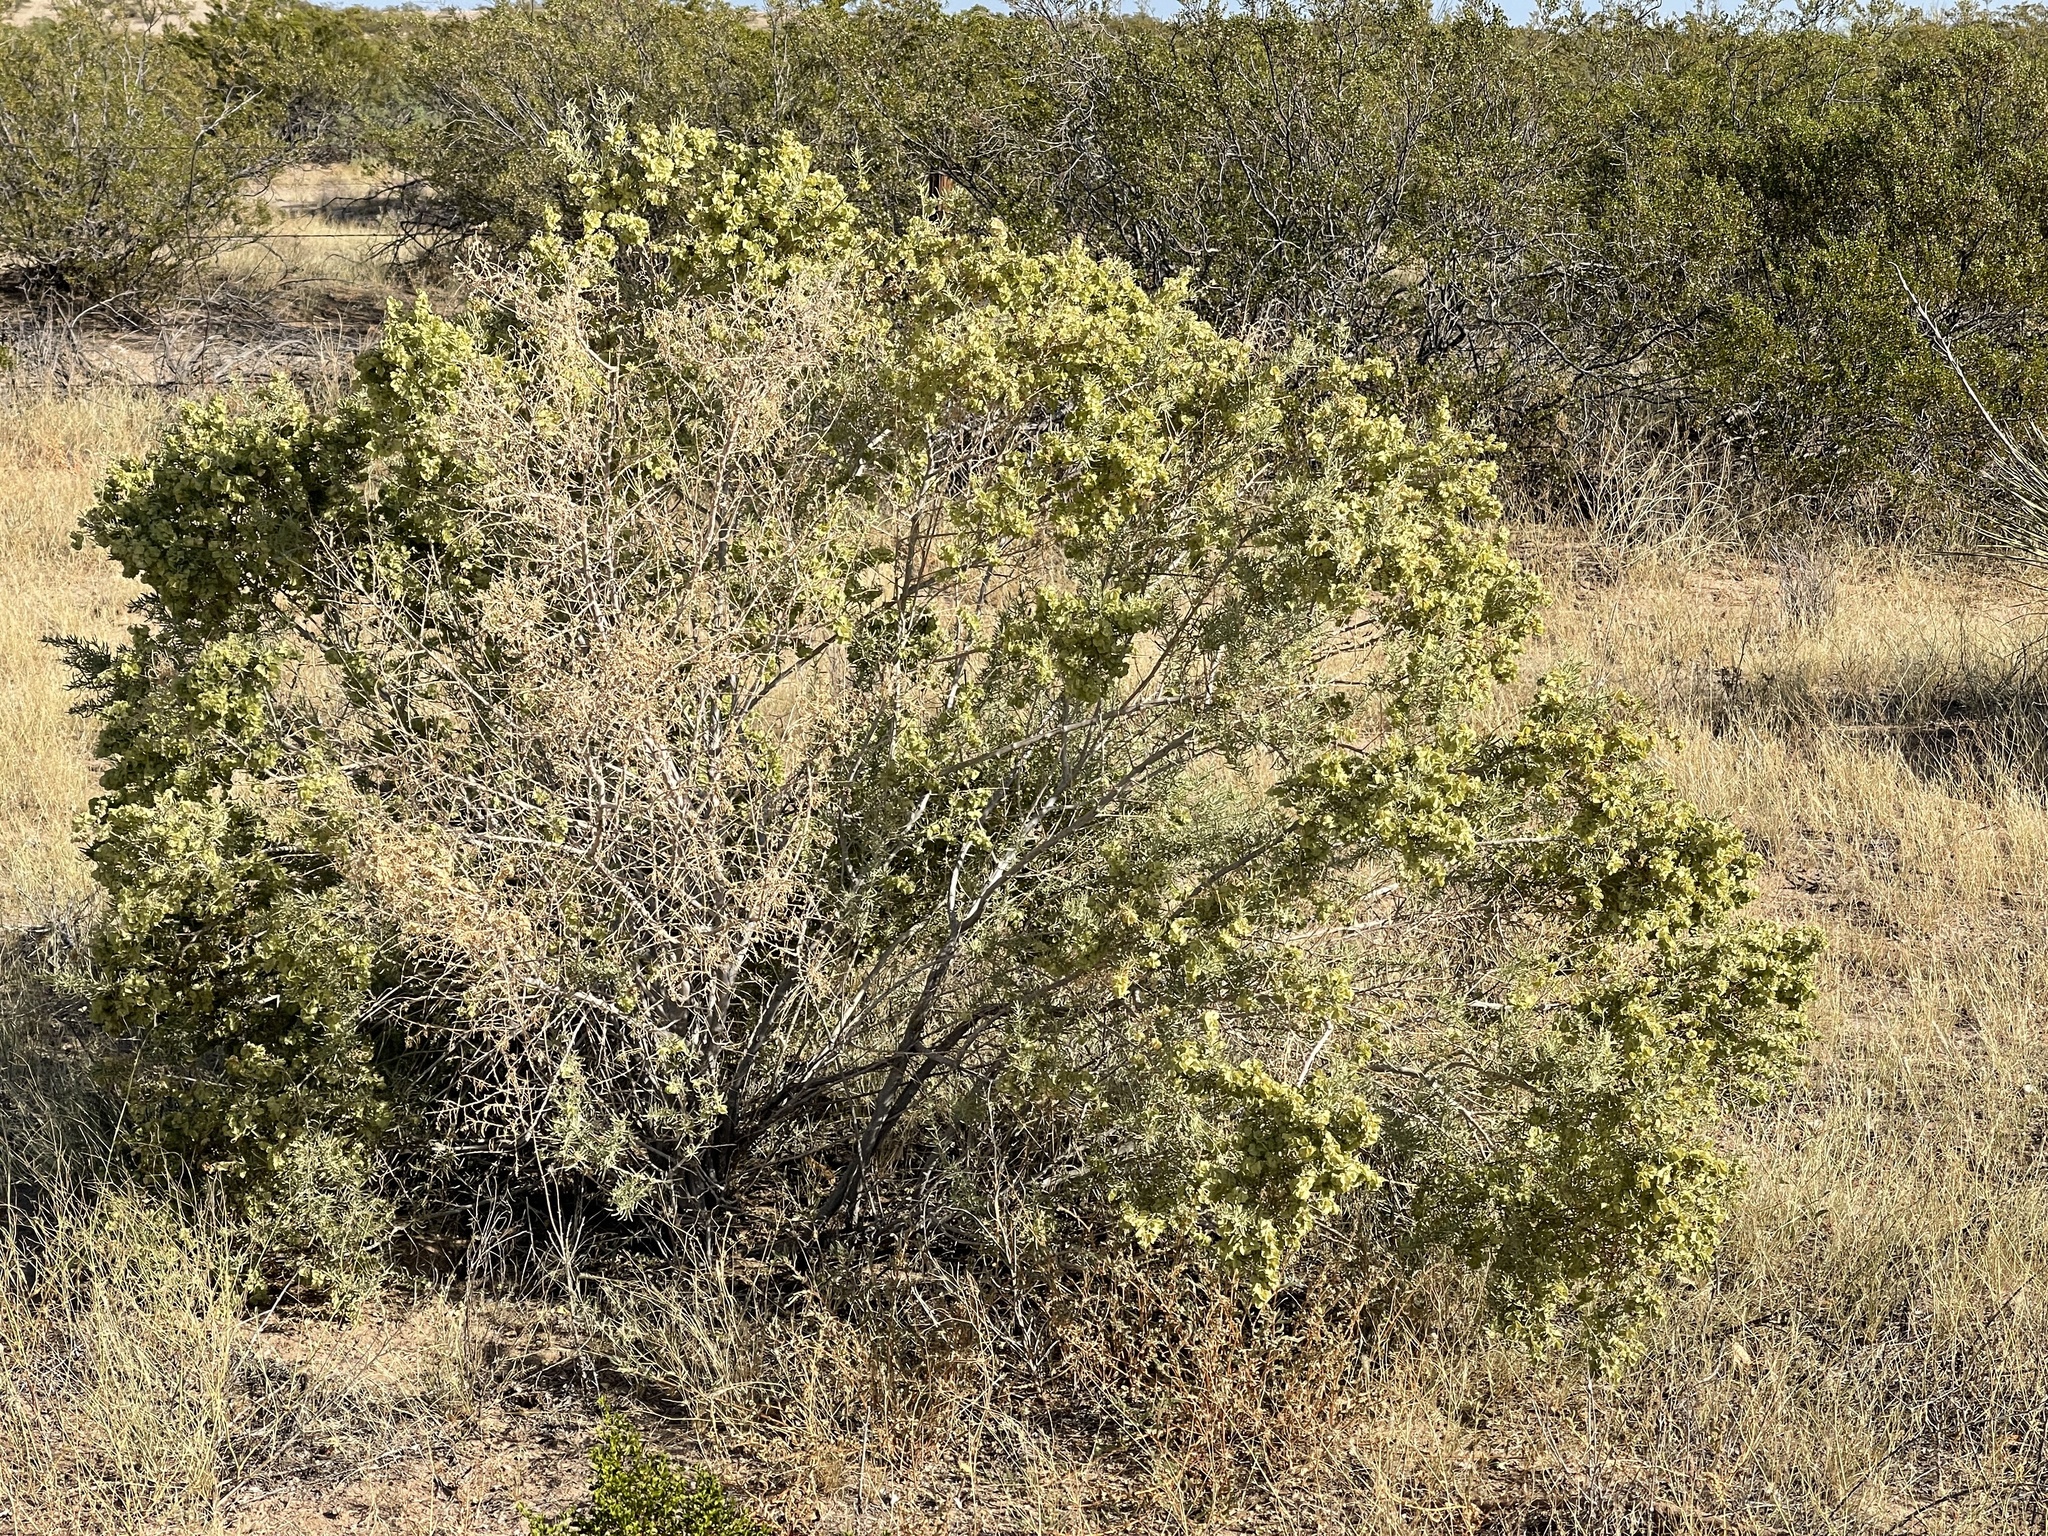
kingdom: Plantae
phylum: Tracheophyta
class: Magnoliopsida
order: Caryophyllales
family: Amaranthaceae
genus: Atriplex
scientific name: Atriplex canescens
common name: Four-wing saltbush
